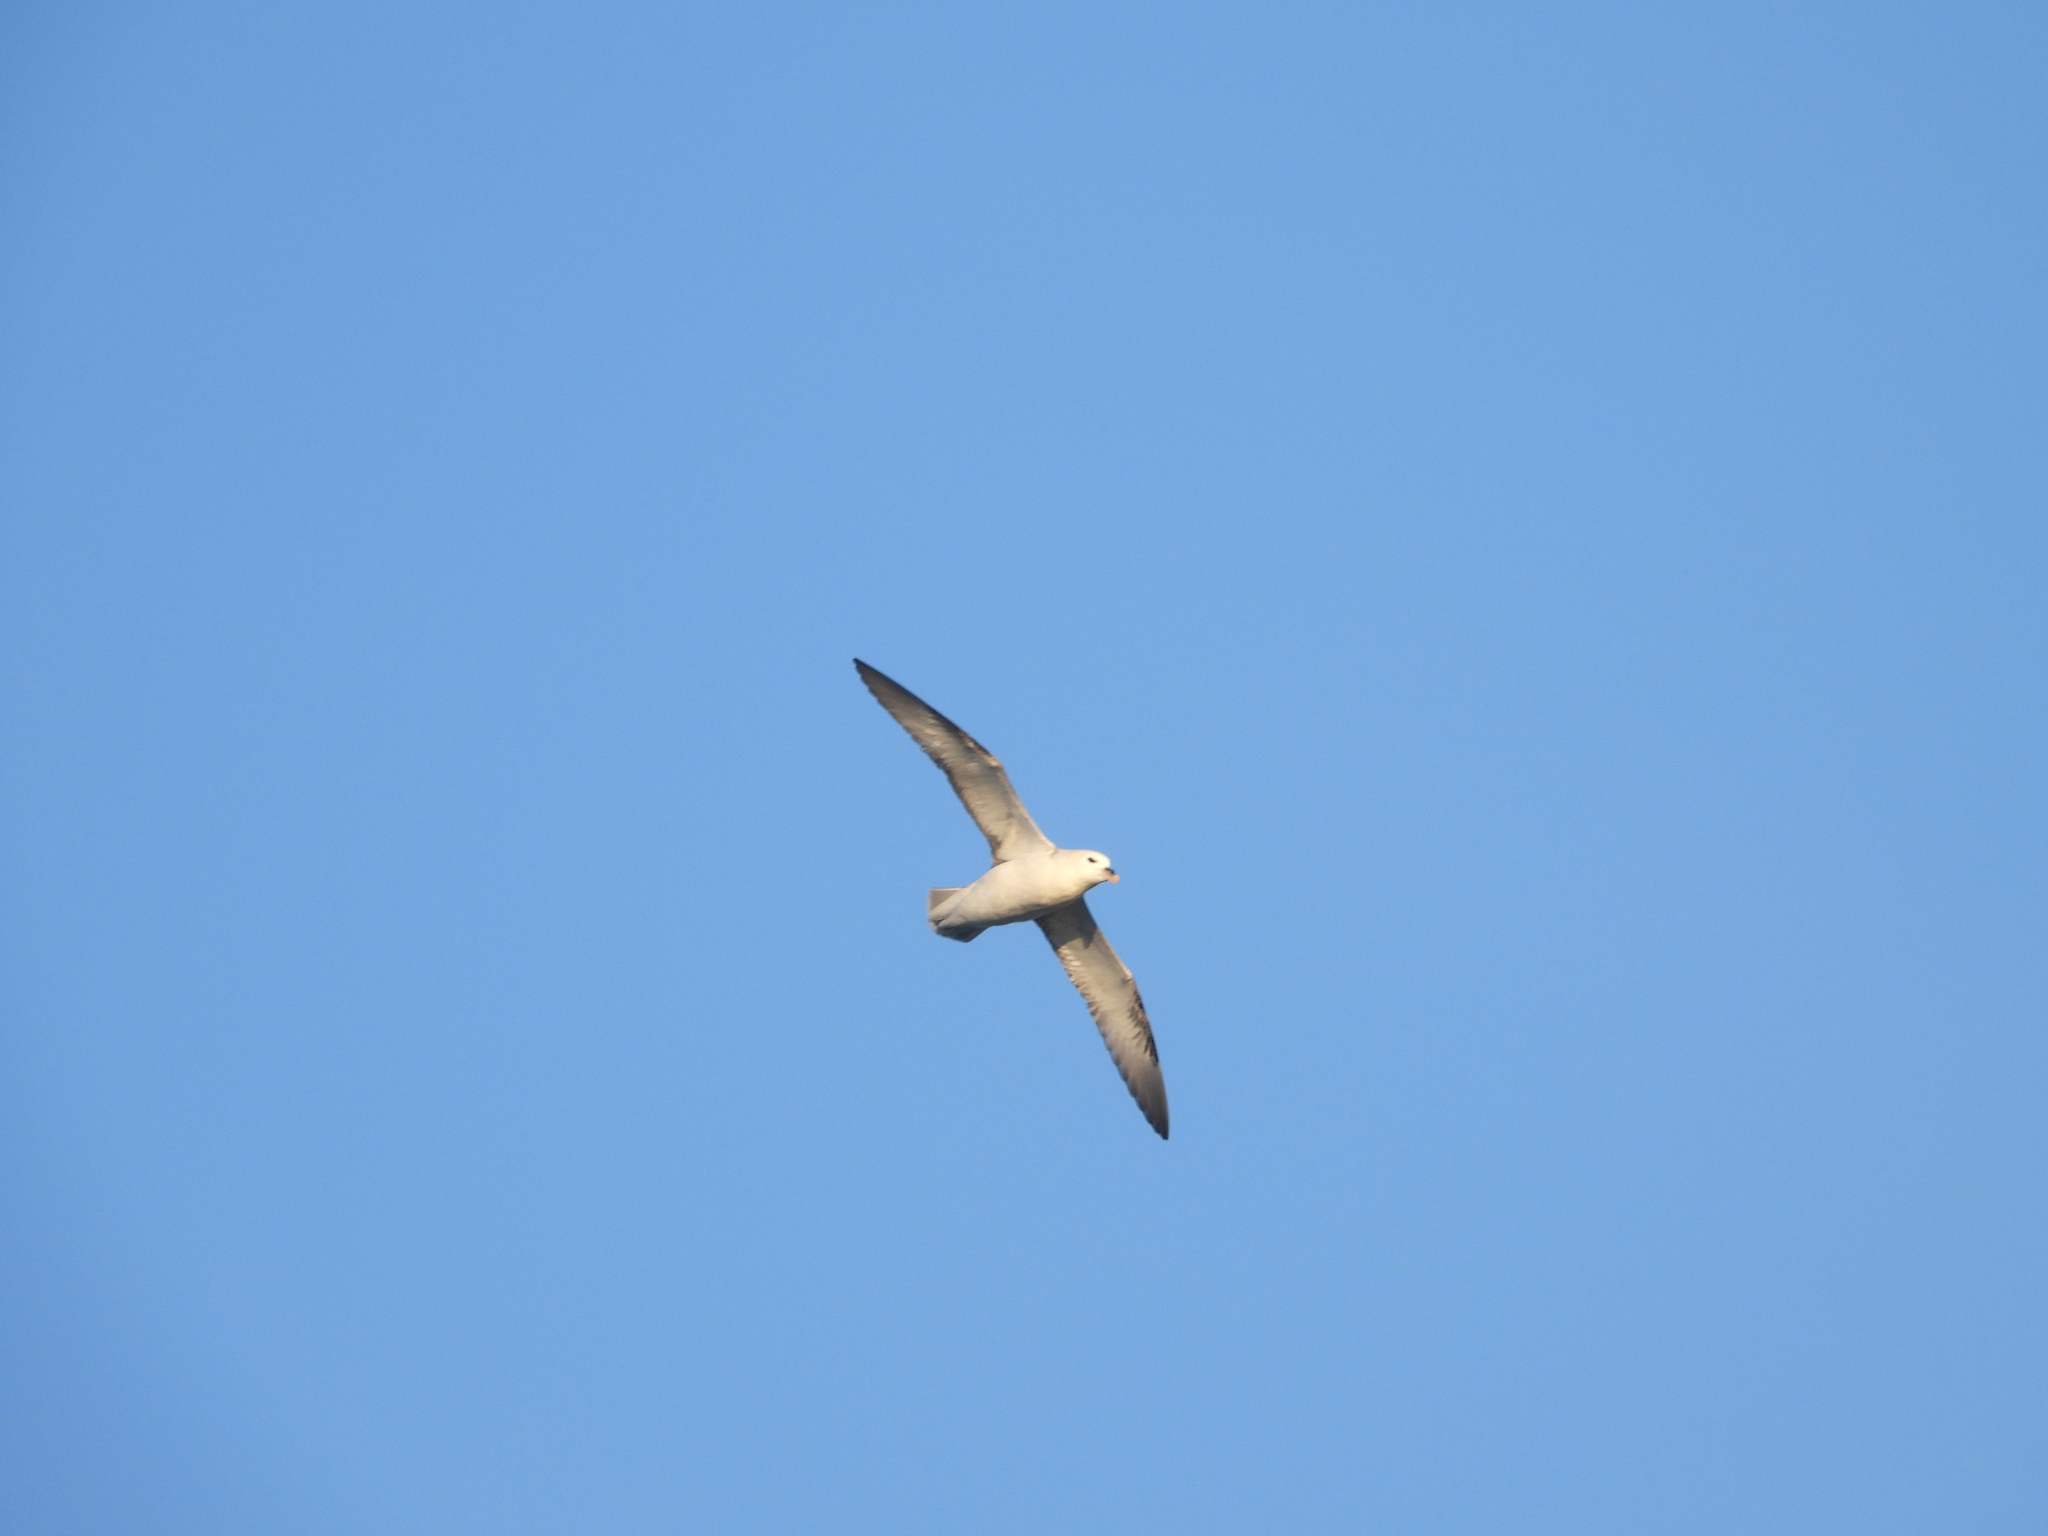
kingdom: Animalia
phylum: Chordata
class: Aves
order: Procellariiformes
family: Procellariidae
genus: Fulmarus
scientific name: Fulmarus glacialis
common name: Northern fulmar
